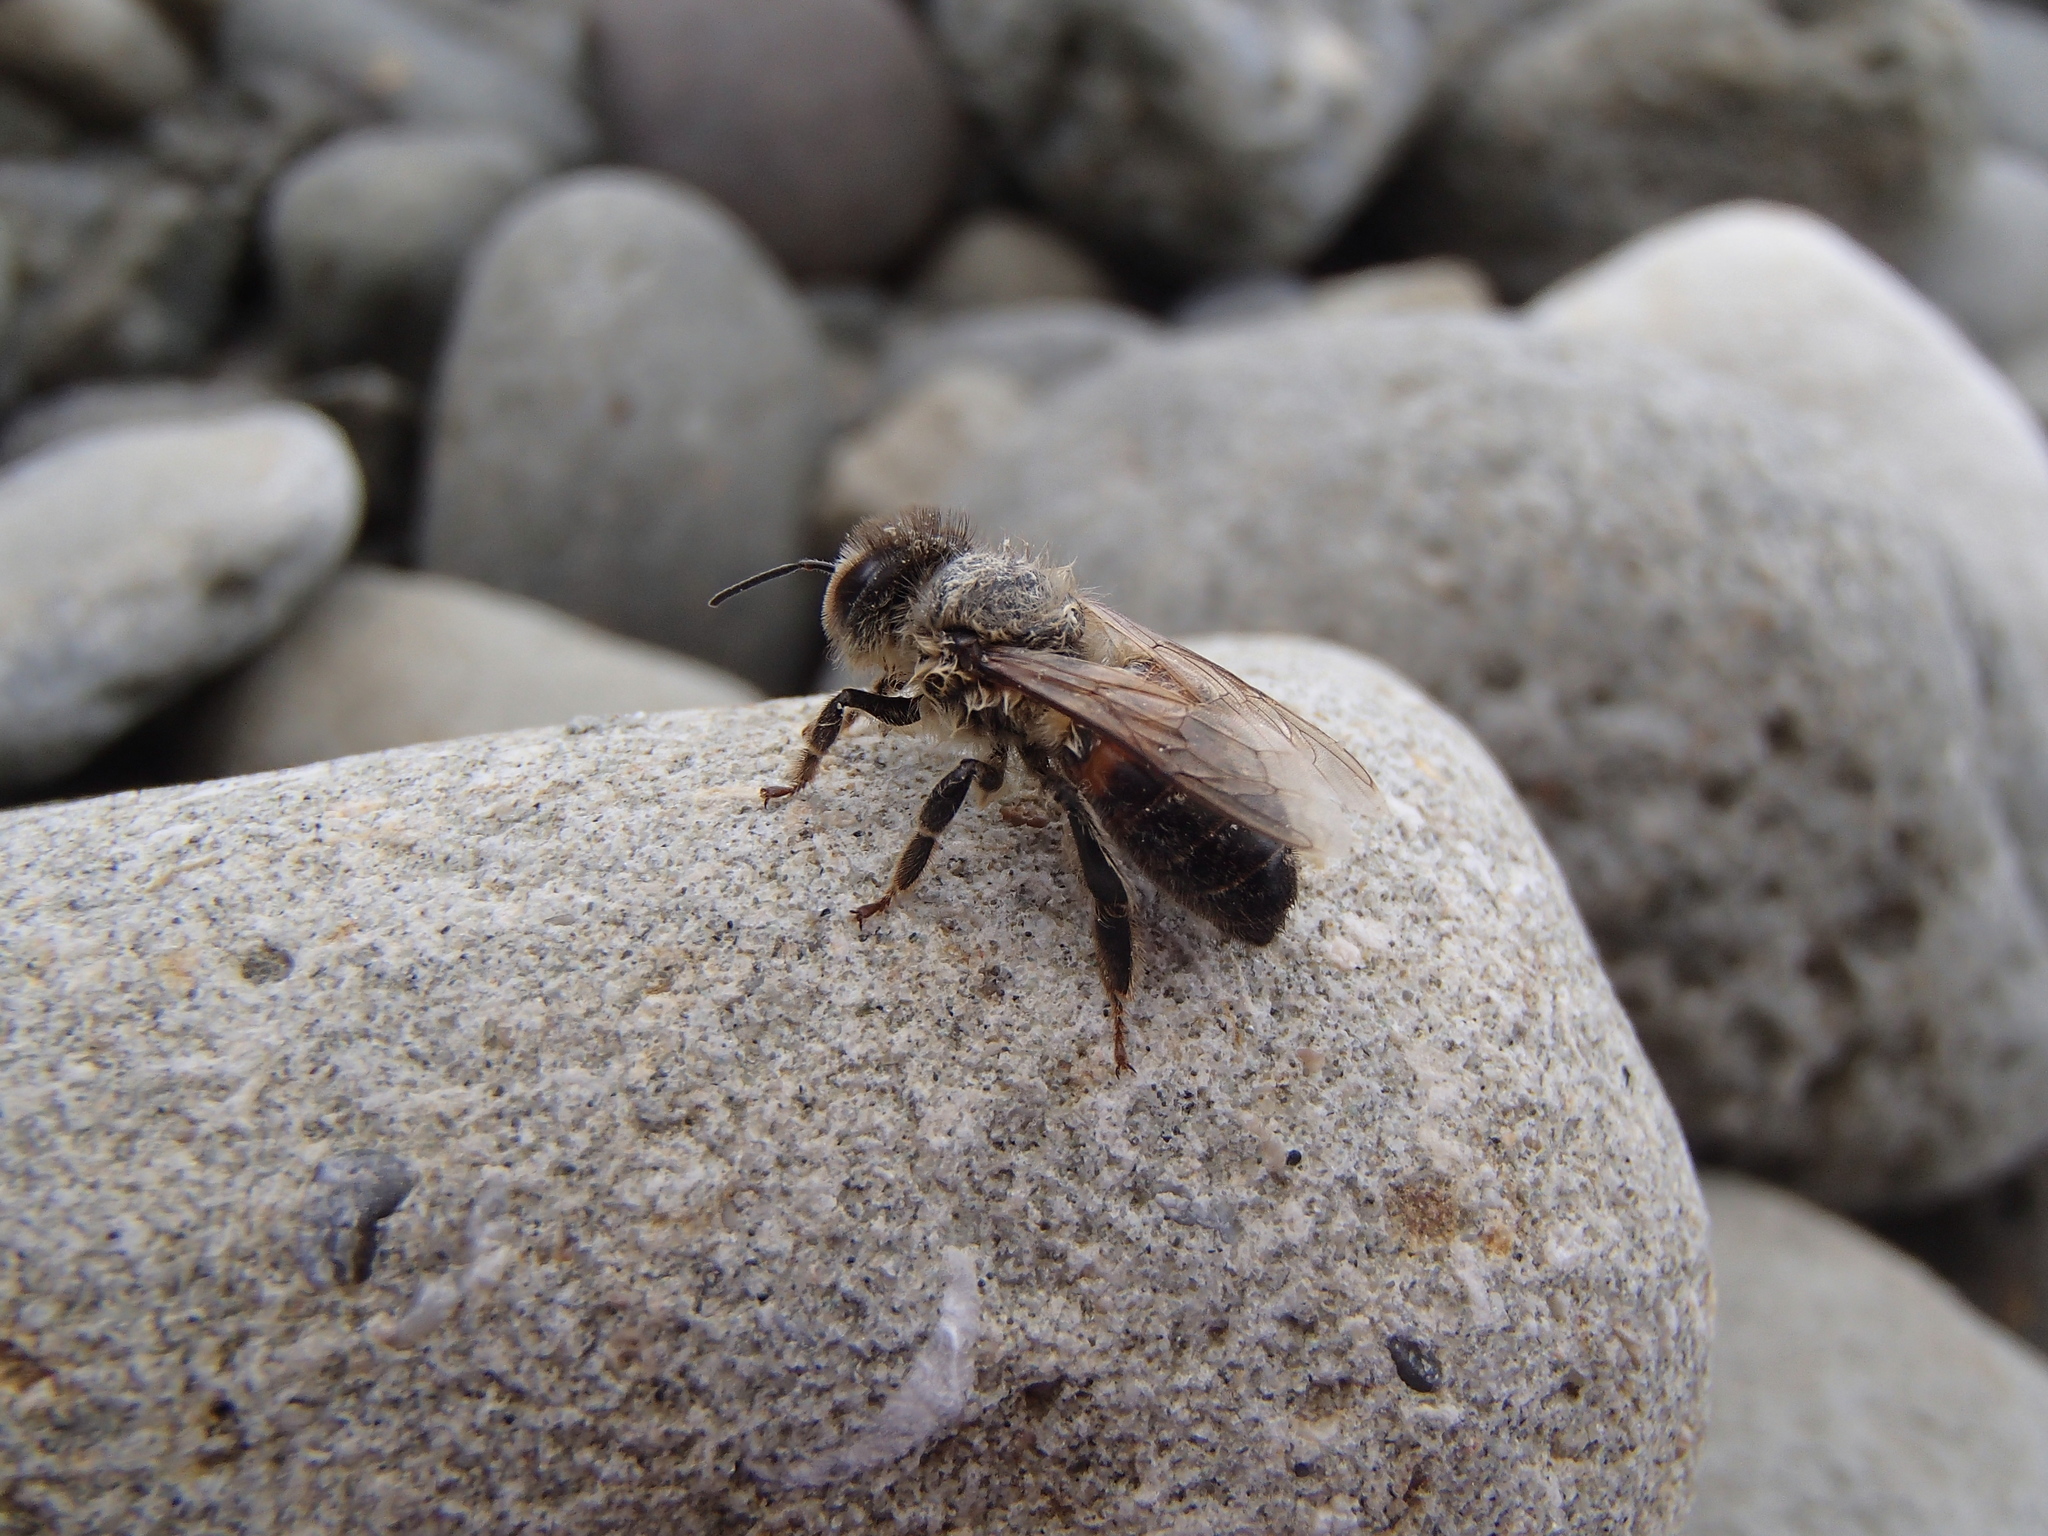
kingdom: Animalia
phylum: Arthropoda
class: Insecta
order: Hymenoptera
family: Apidae
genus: Apis
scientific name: Apis mellifera
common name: Honey bee
